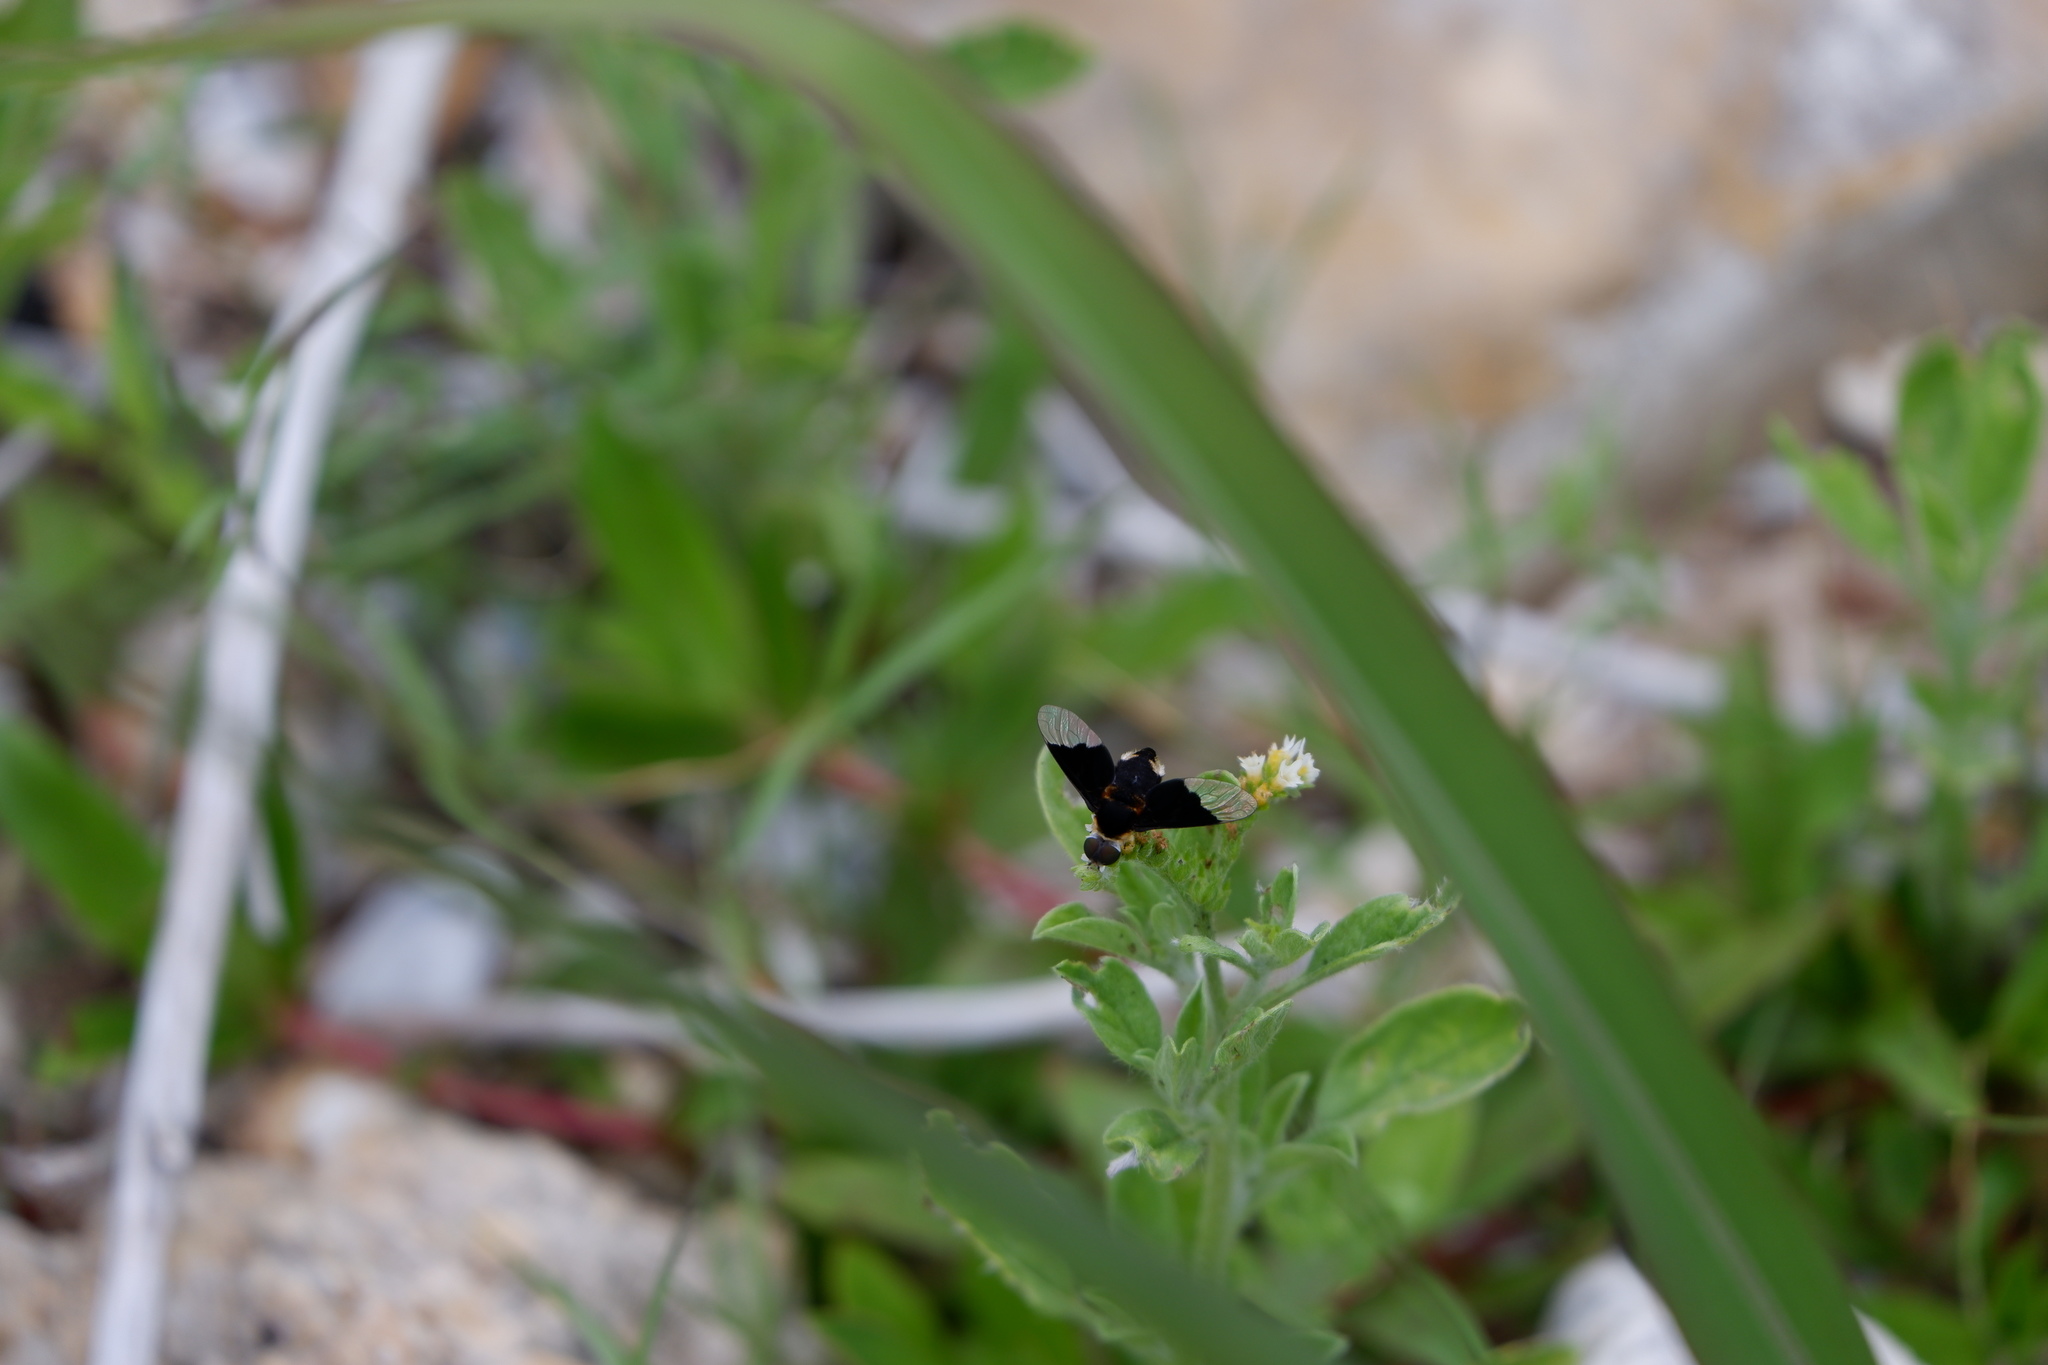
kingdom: Animalia
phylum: Arthropoda
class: Insecta
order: Diptera
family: Bombyliidae
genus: Ins
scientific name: Ins celeris
